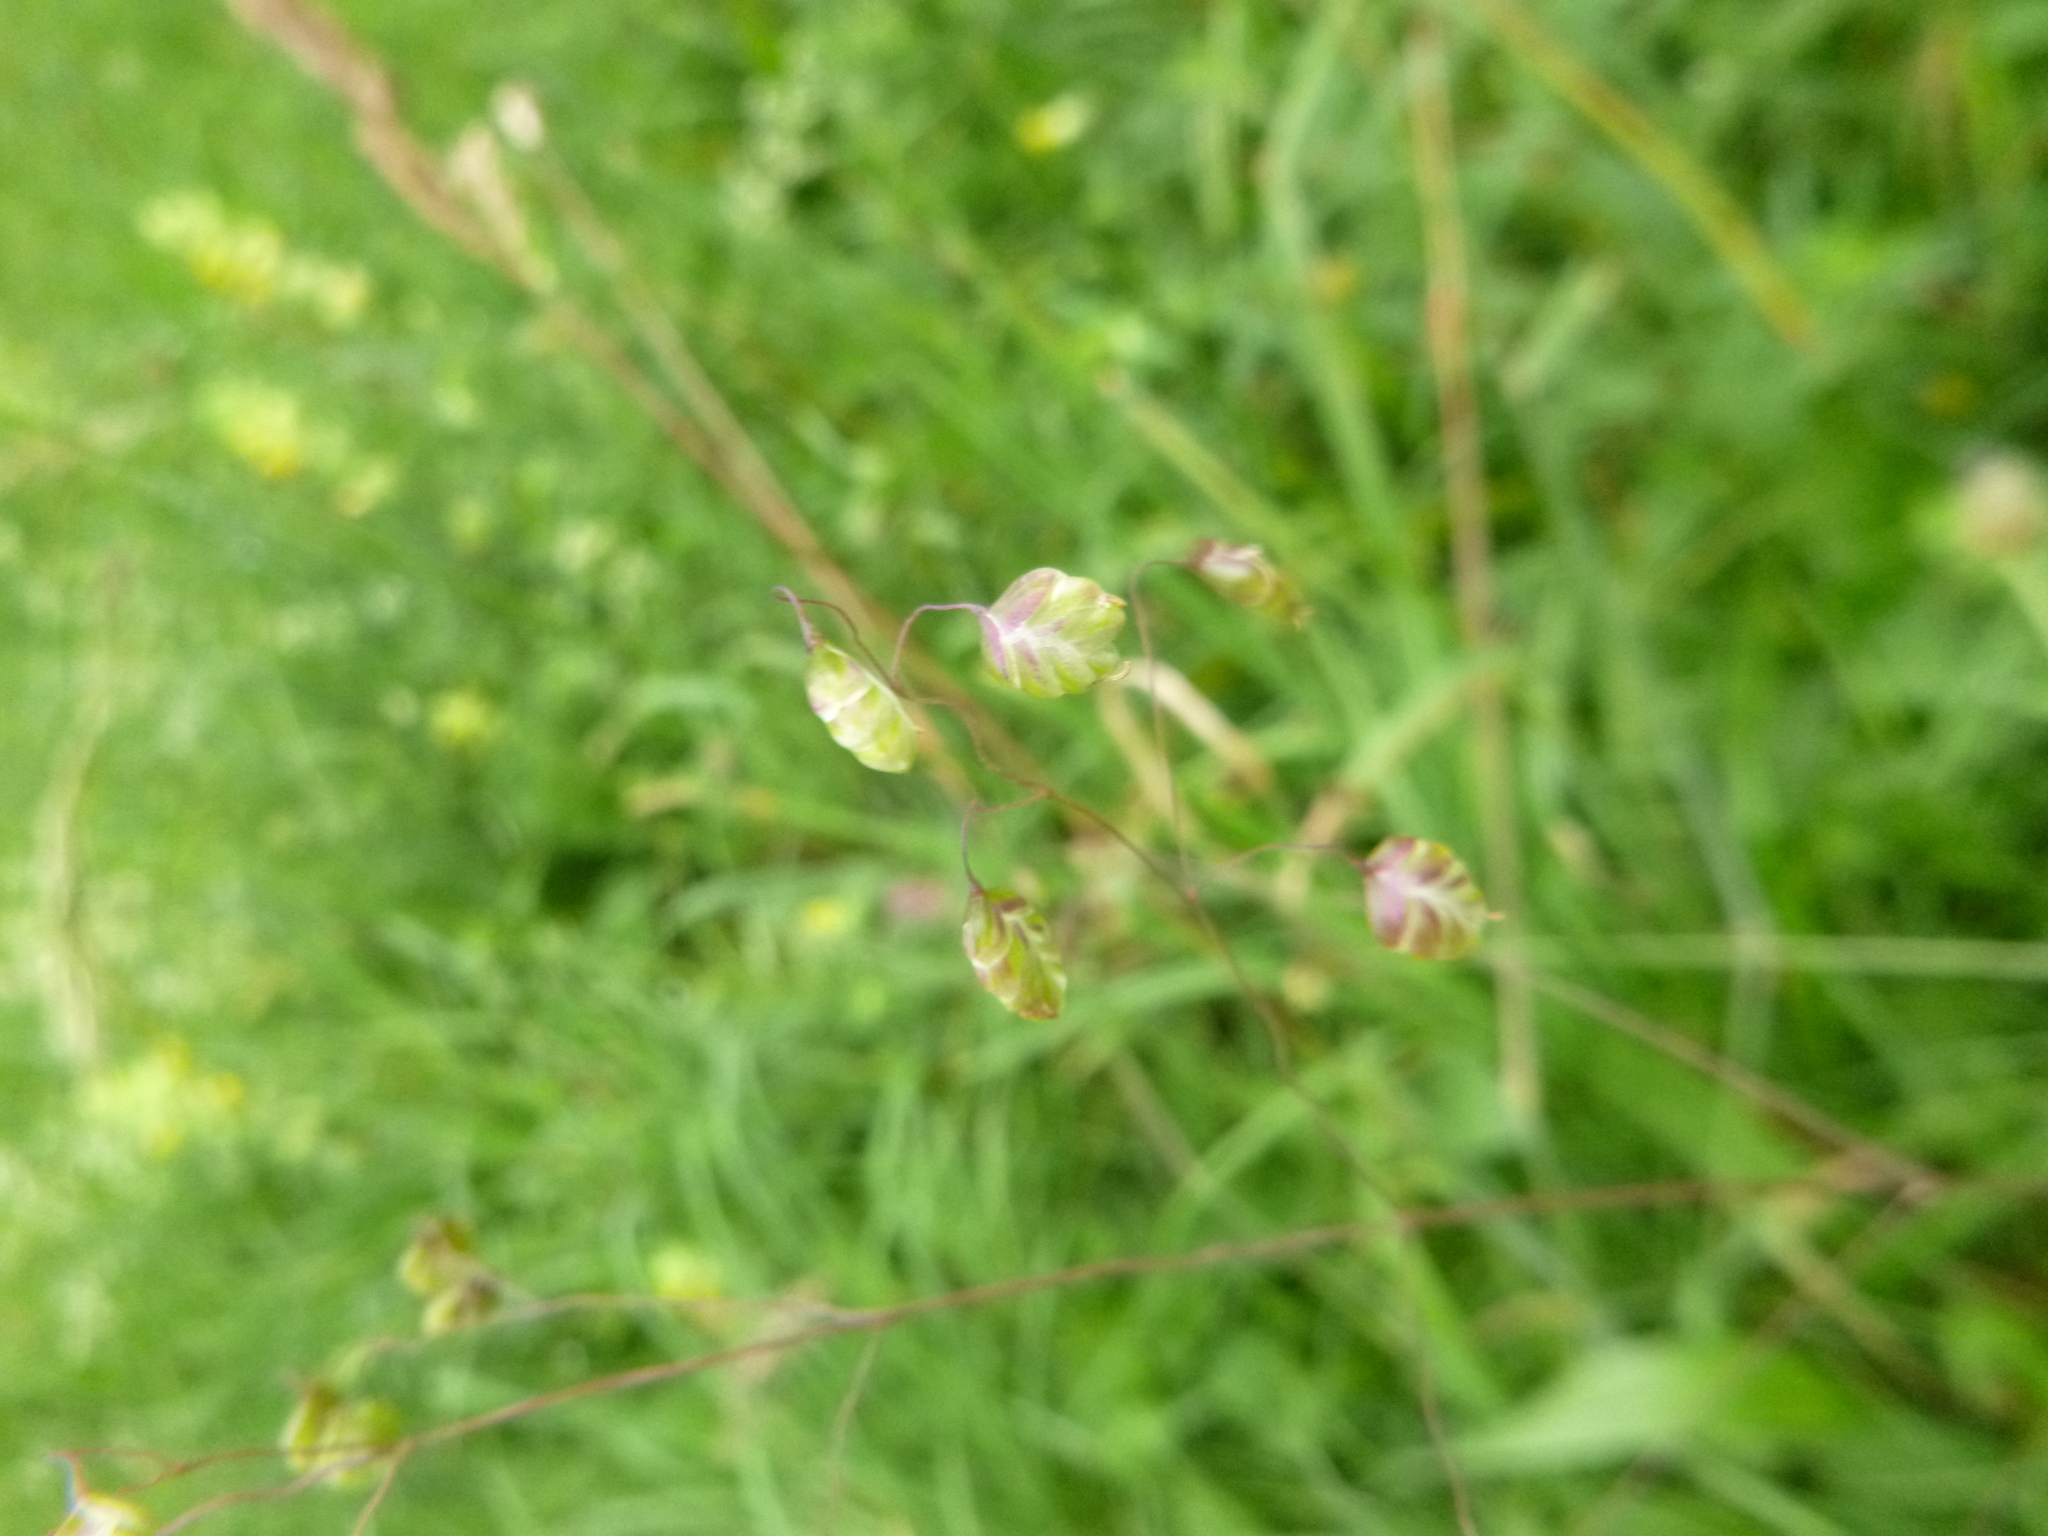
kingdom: Plantae
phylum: Tracheophyta
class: Liliopsida
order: Poales
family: Poaceae
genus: Briza
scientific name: Briza media
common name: Quaking grass
